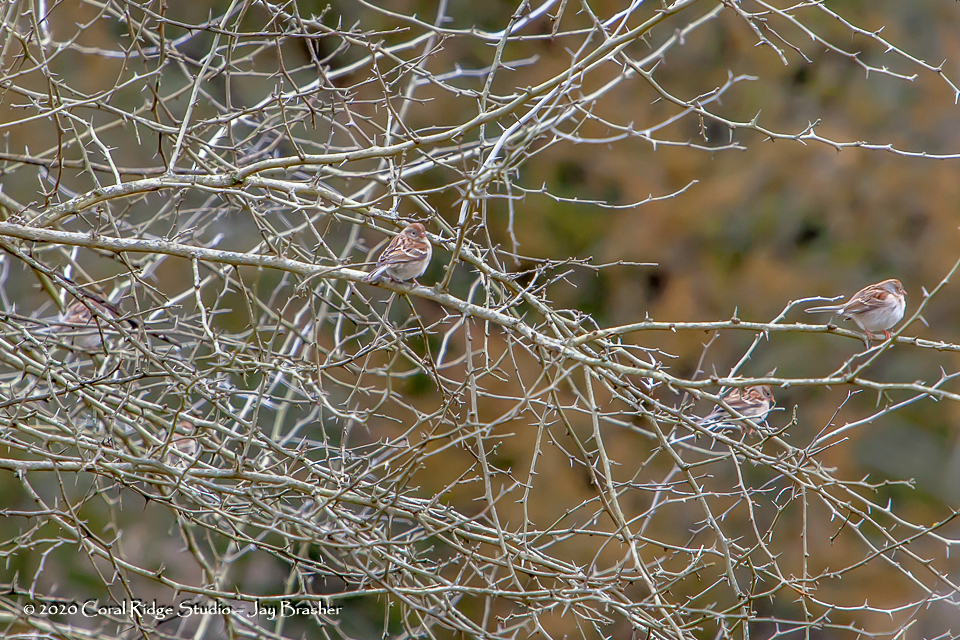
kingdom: Animalia
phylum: Chordata
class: Aves
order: Passeriformes
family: Passerellidae
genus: Spizella
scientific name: Spizella pusilla
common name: Field sparrow
